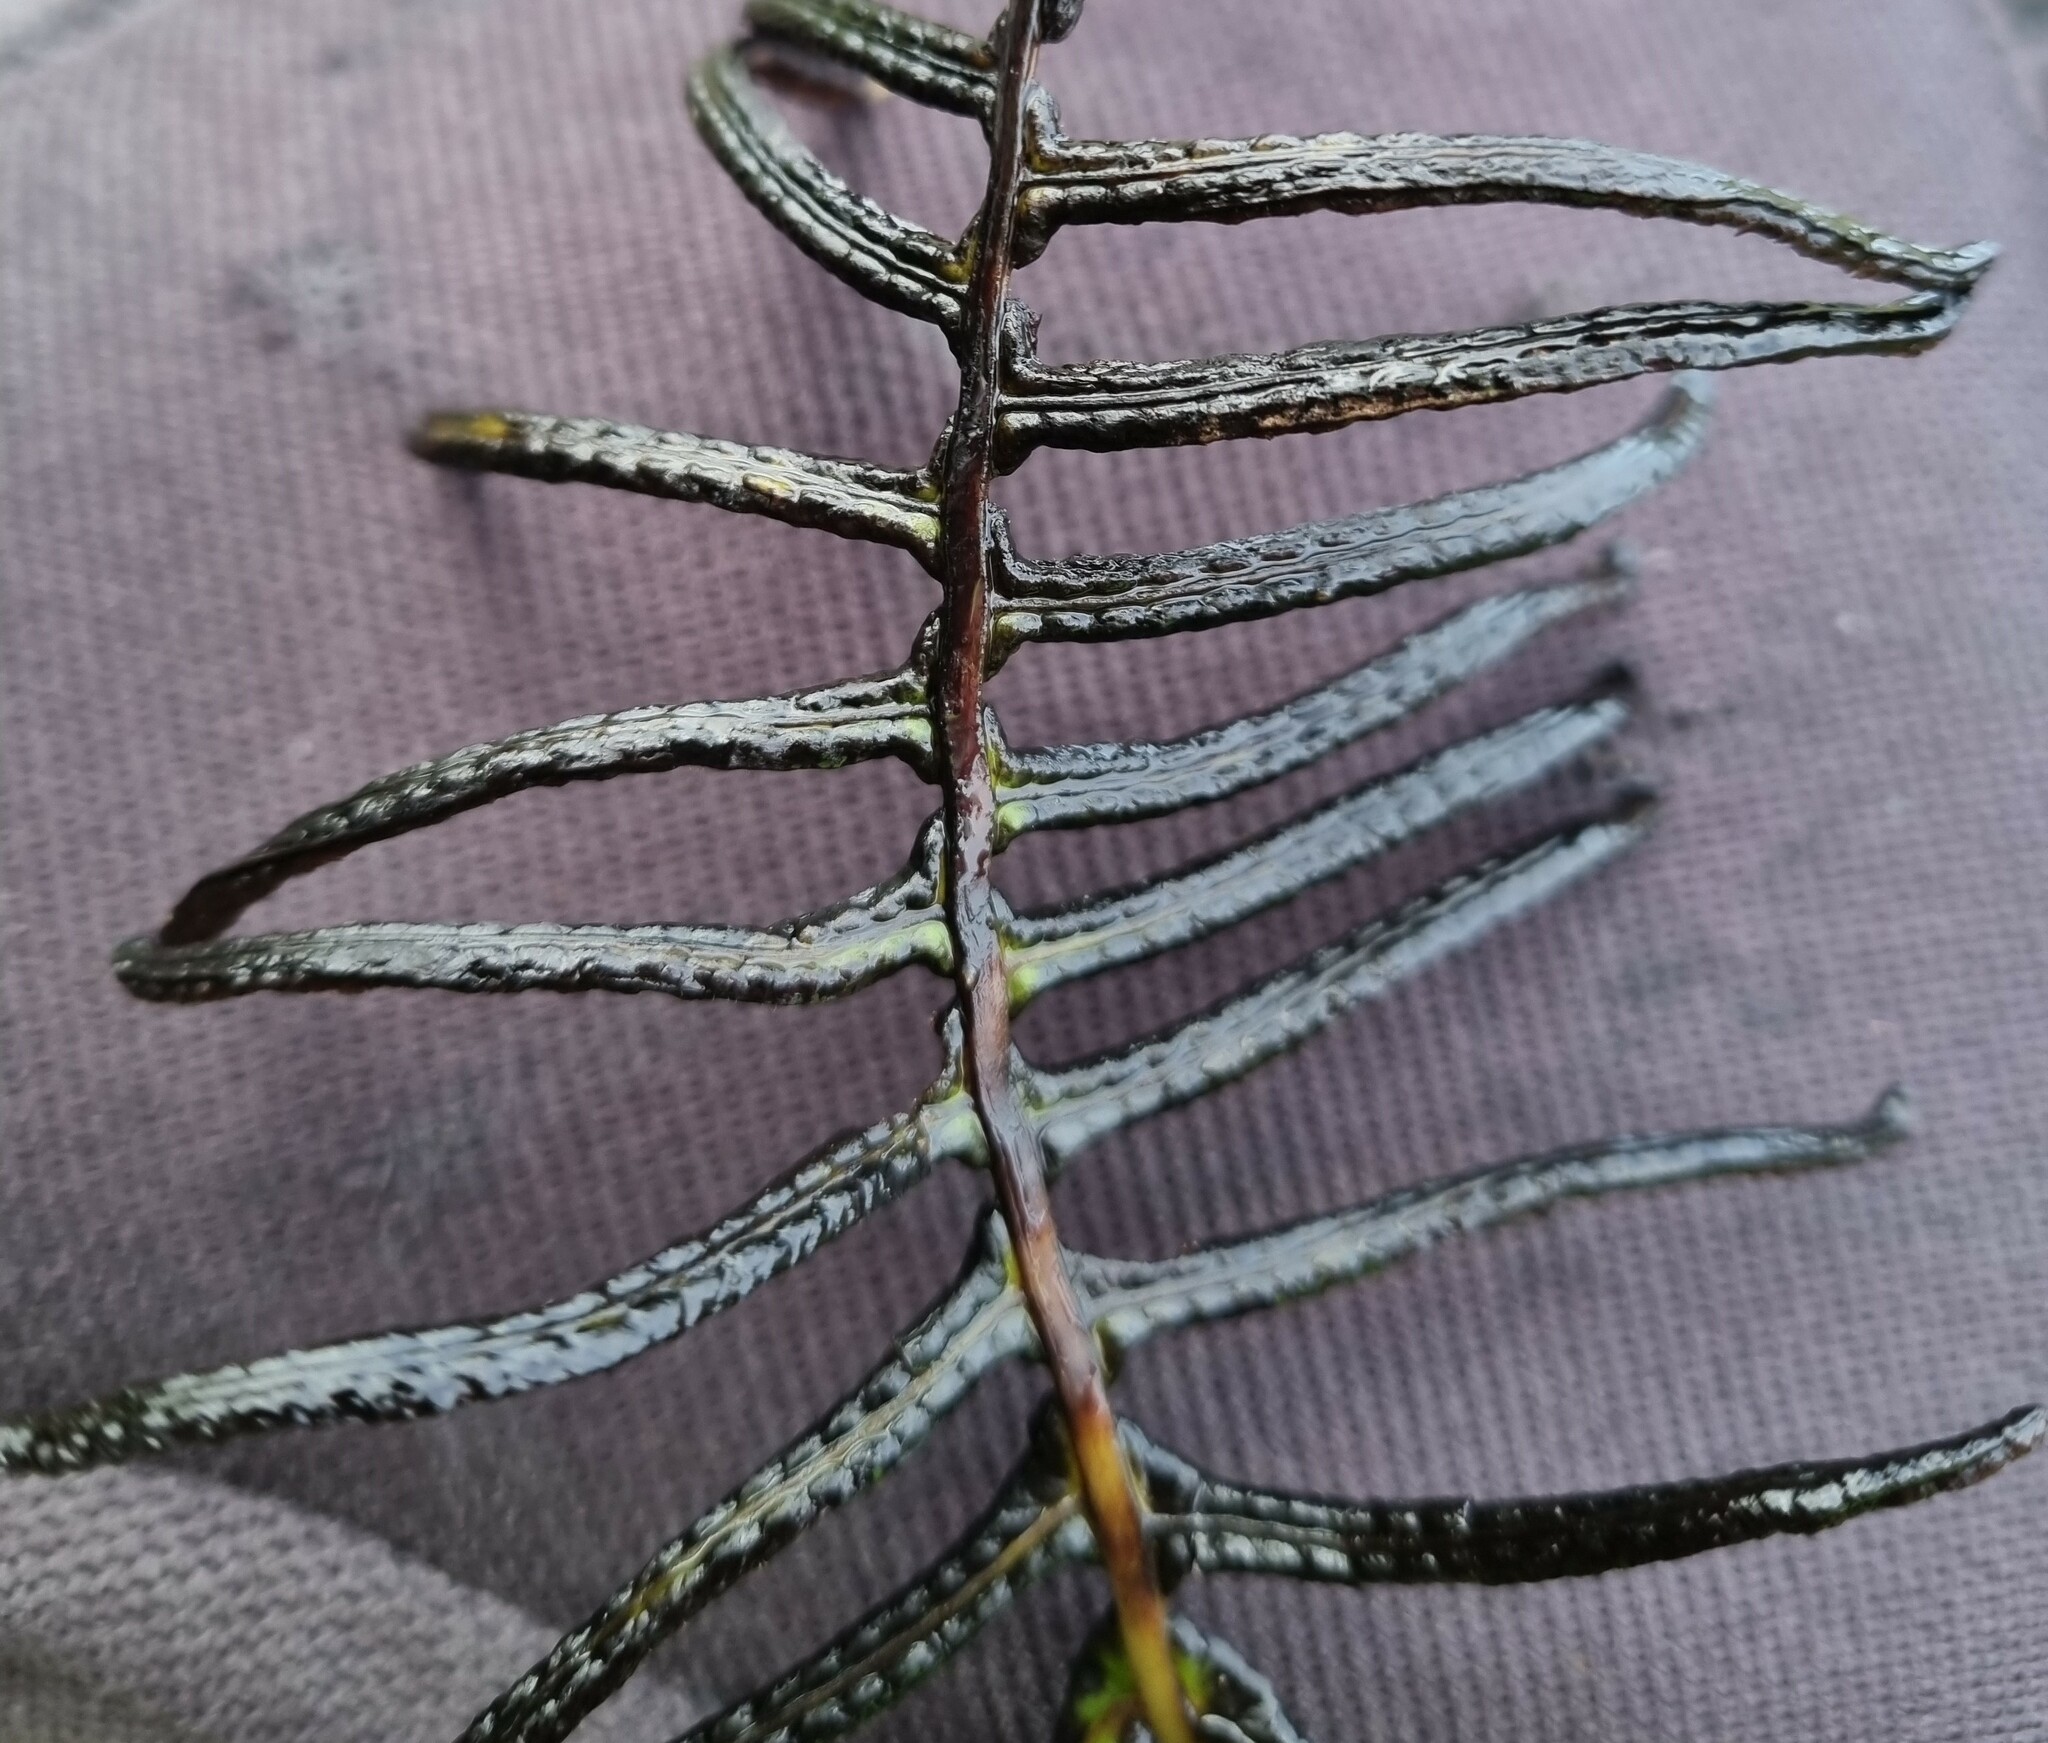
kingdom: Plantae
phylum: Tracheophyta
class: Polypodiopsida
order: Polypodiales
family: Blechnaceae
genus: Cranfillia
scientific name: Cranfillia deltoides
